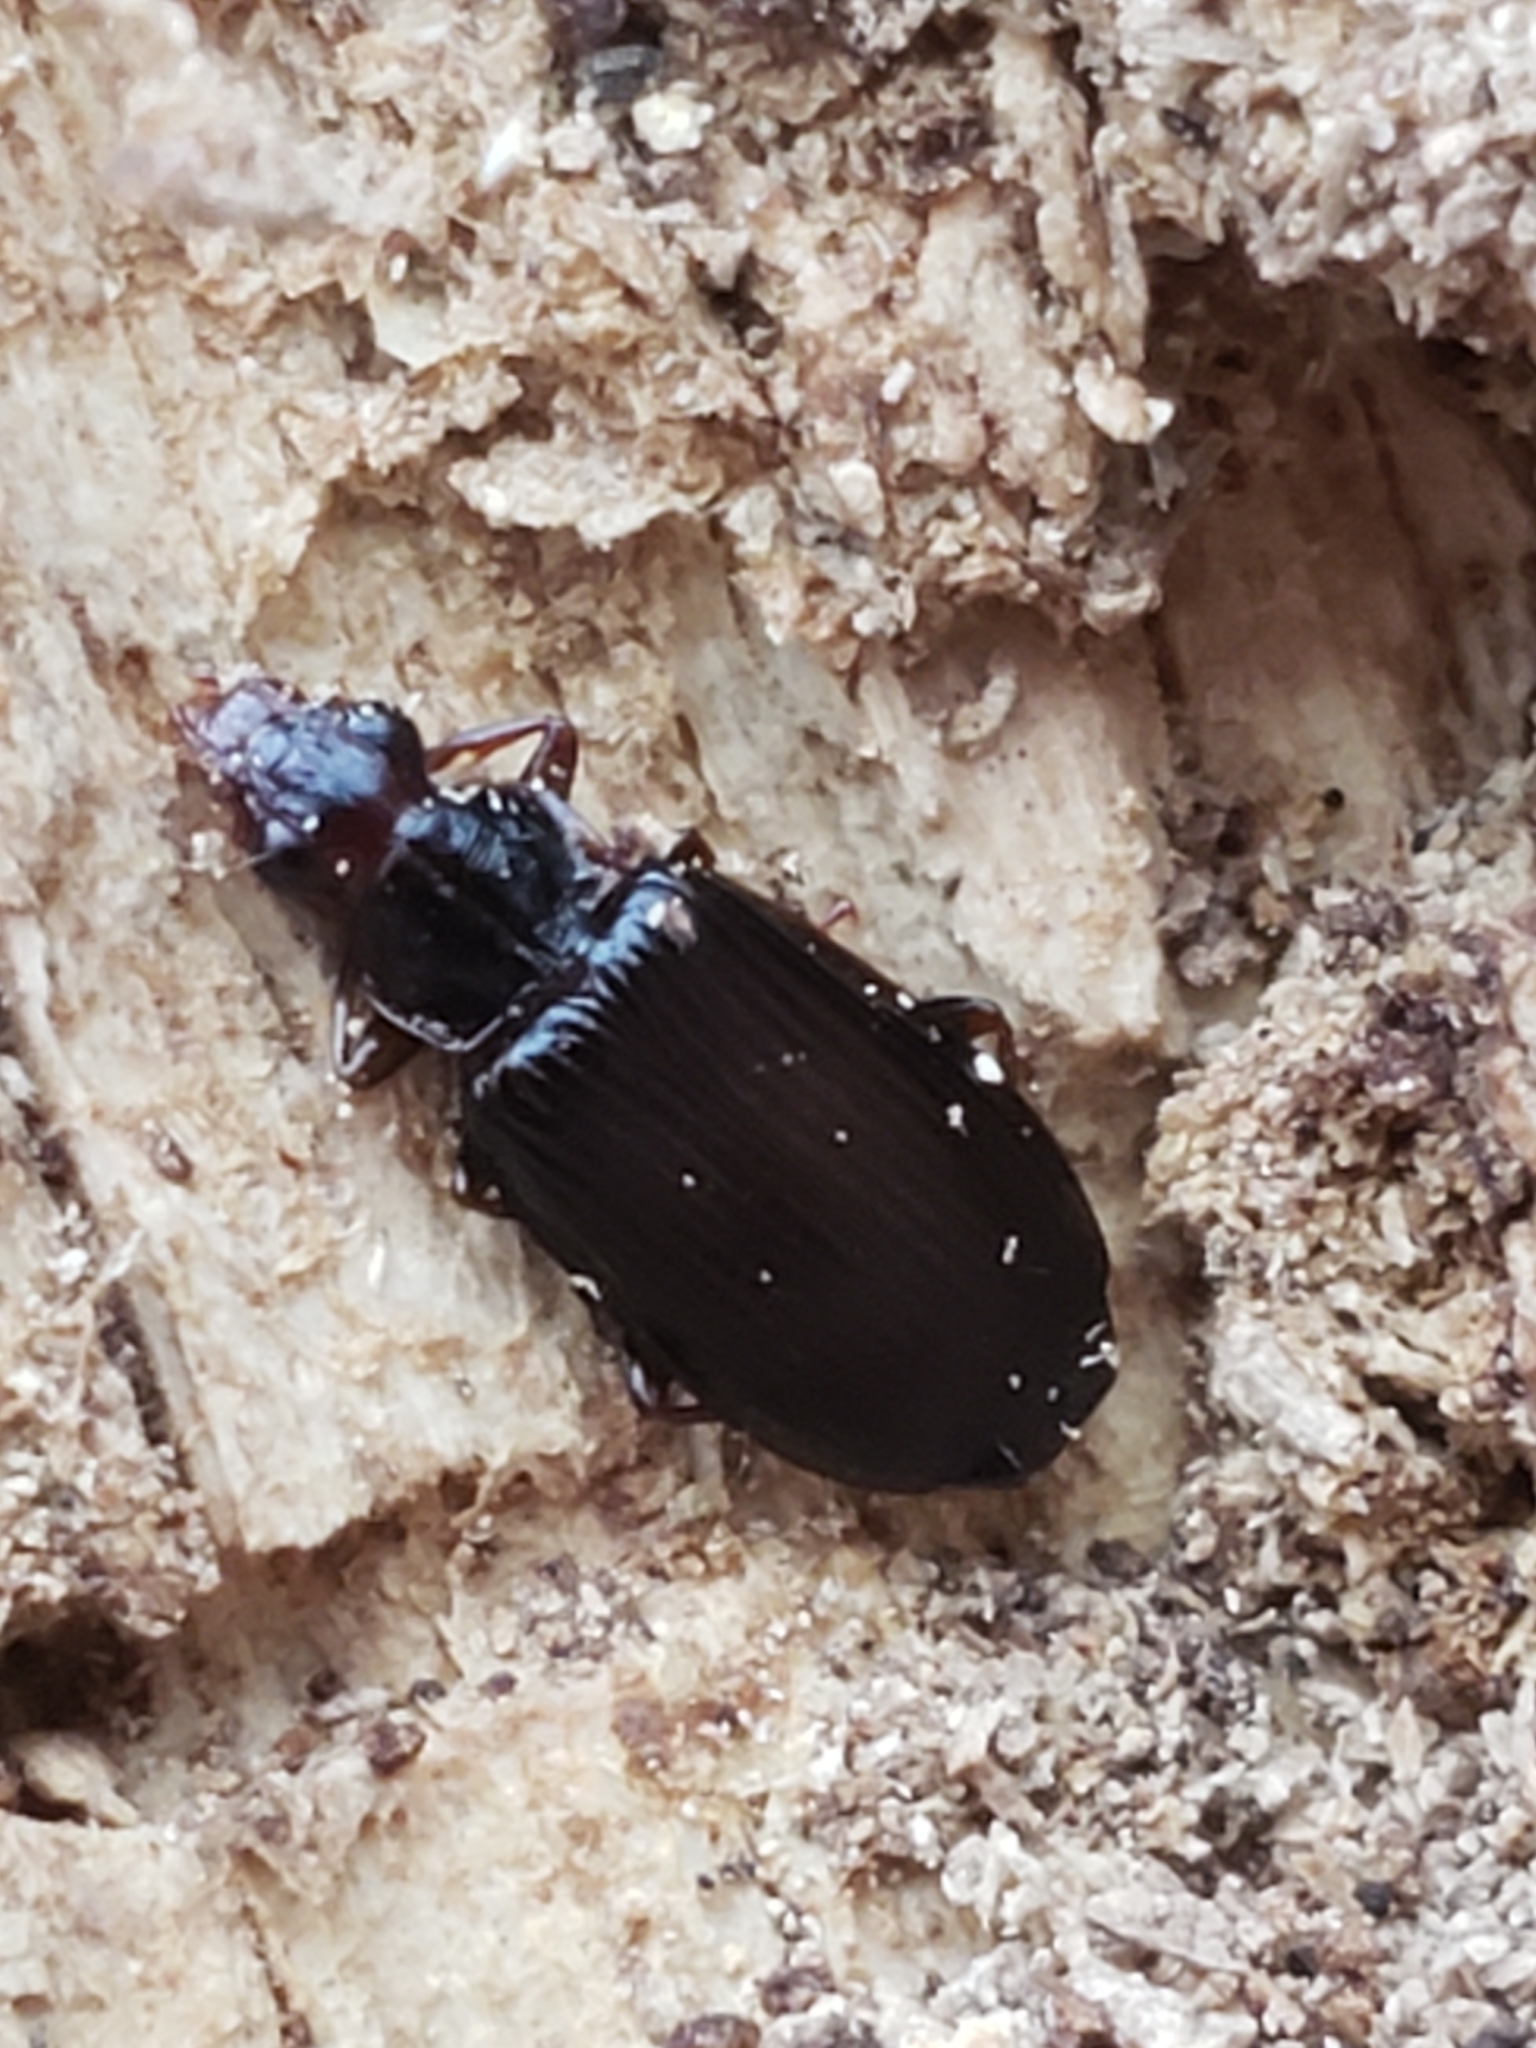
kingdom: Animalia
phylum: Arthropoda
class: Insecta
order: Coleoptera
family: Carabidae
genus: Plochionus
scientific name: Plochionus timidus
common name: Timid harp ground beetle
